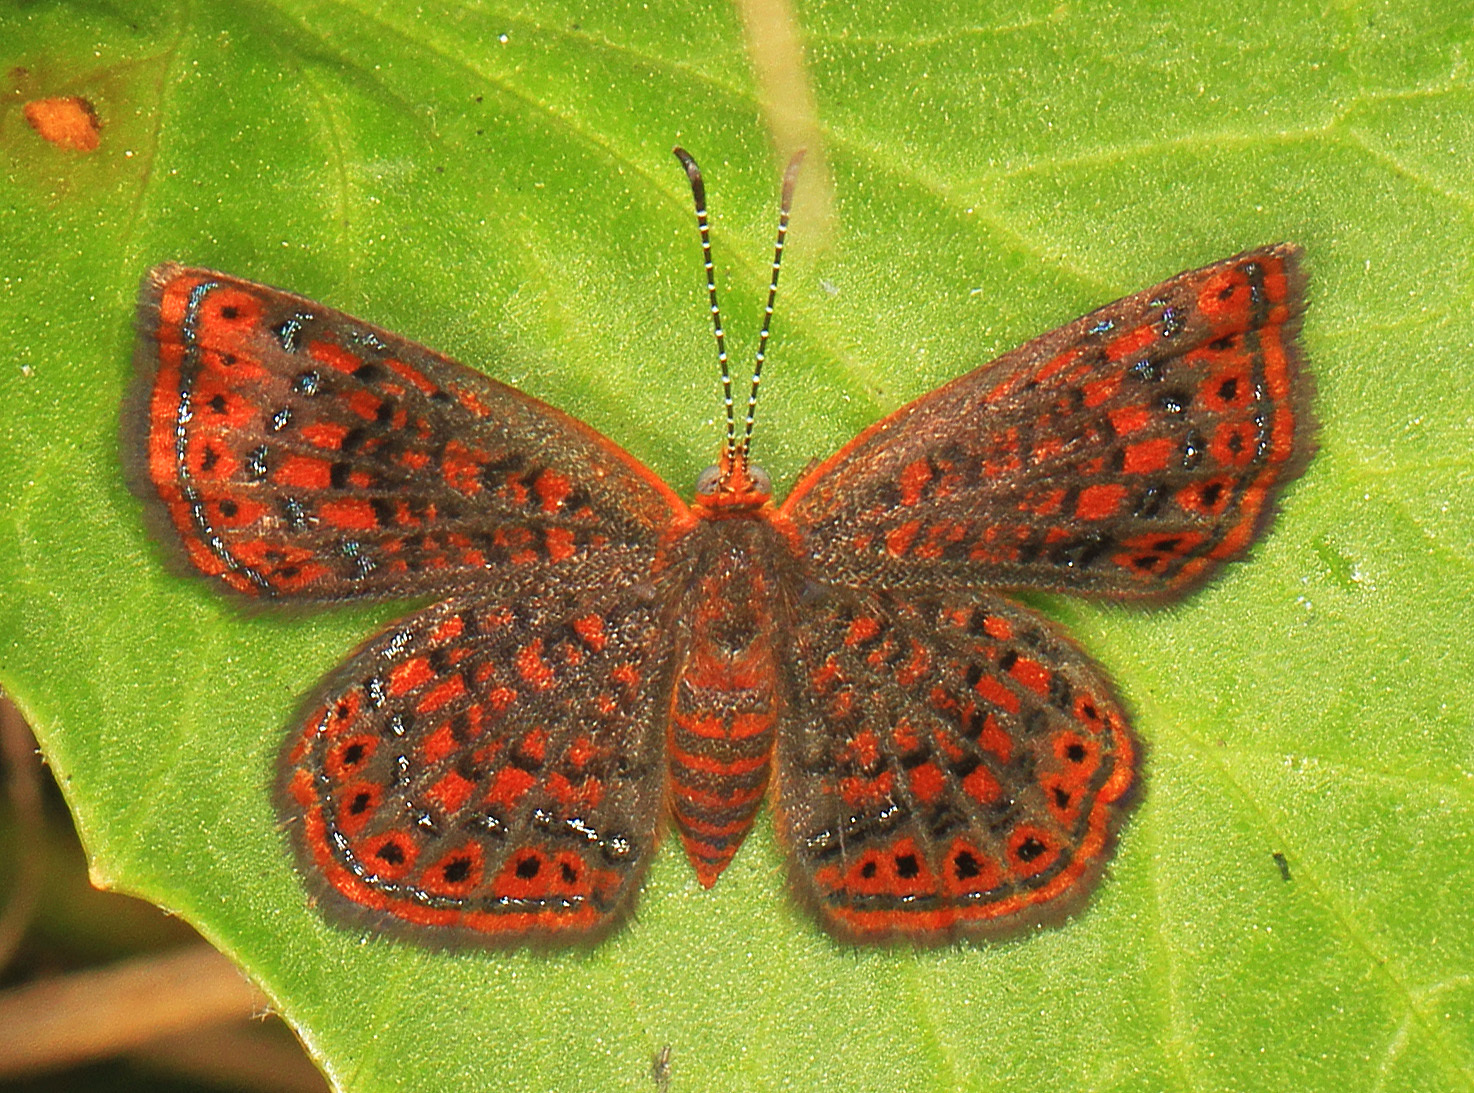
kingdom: Animalia
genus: Calephelis
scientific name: Calephelis virginiensis
